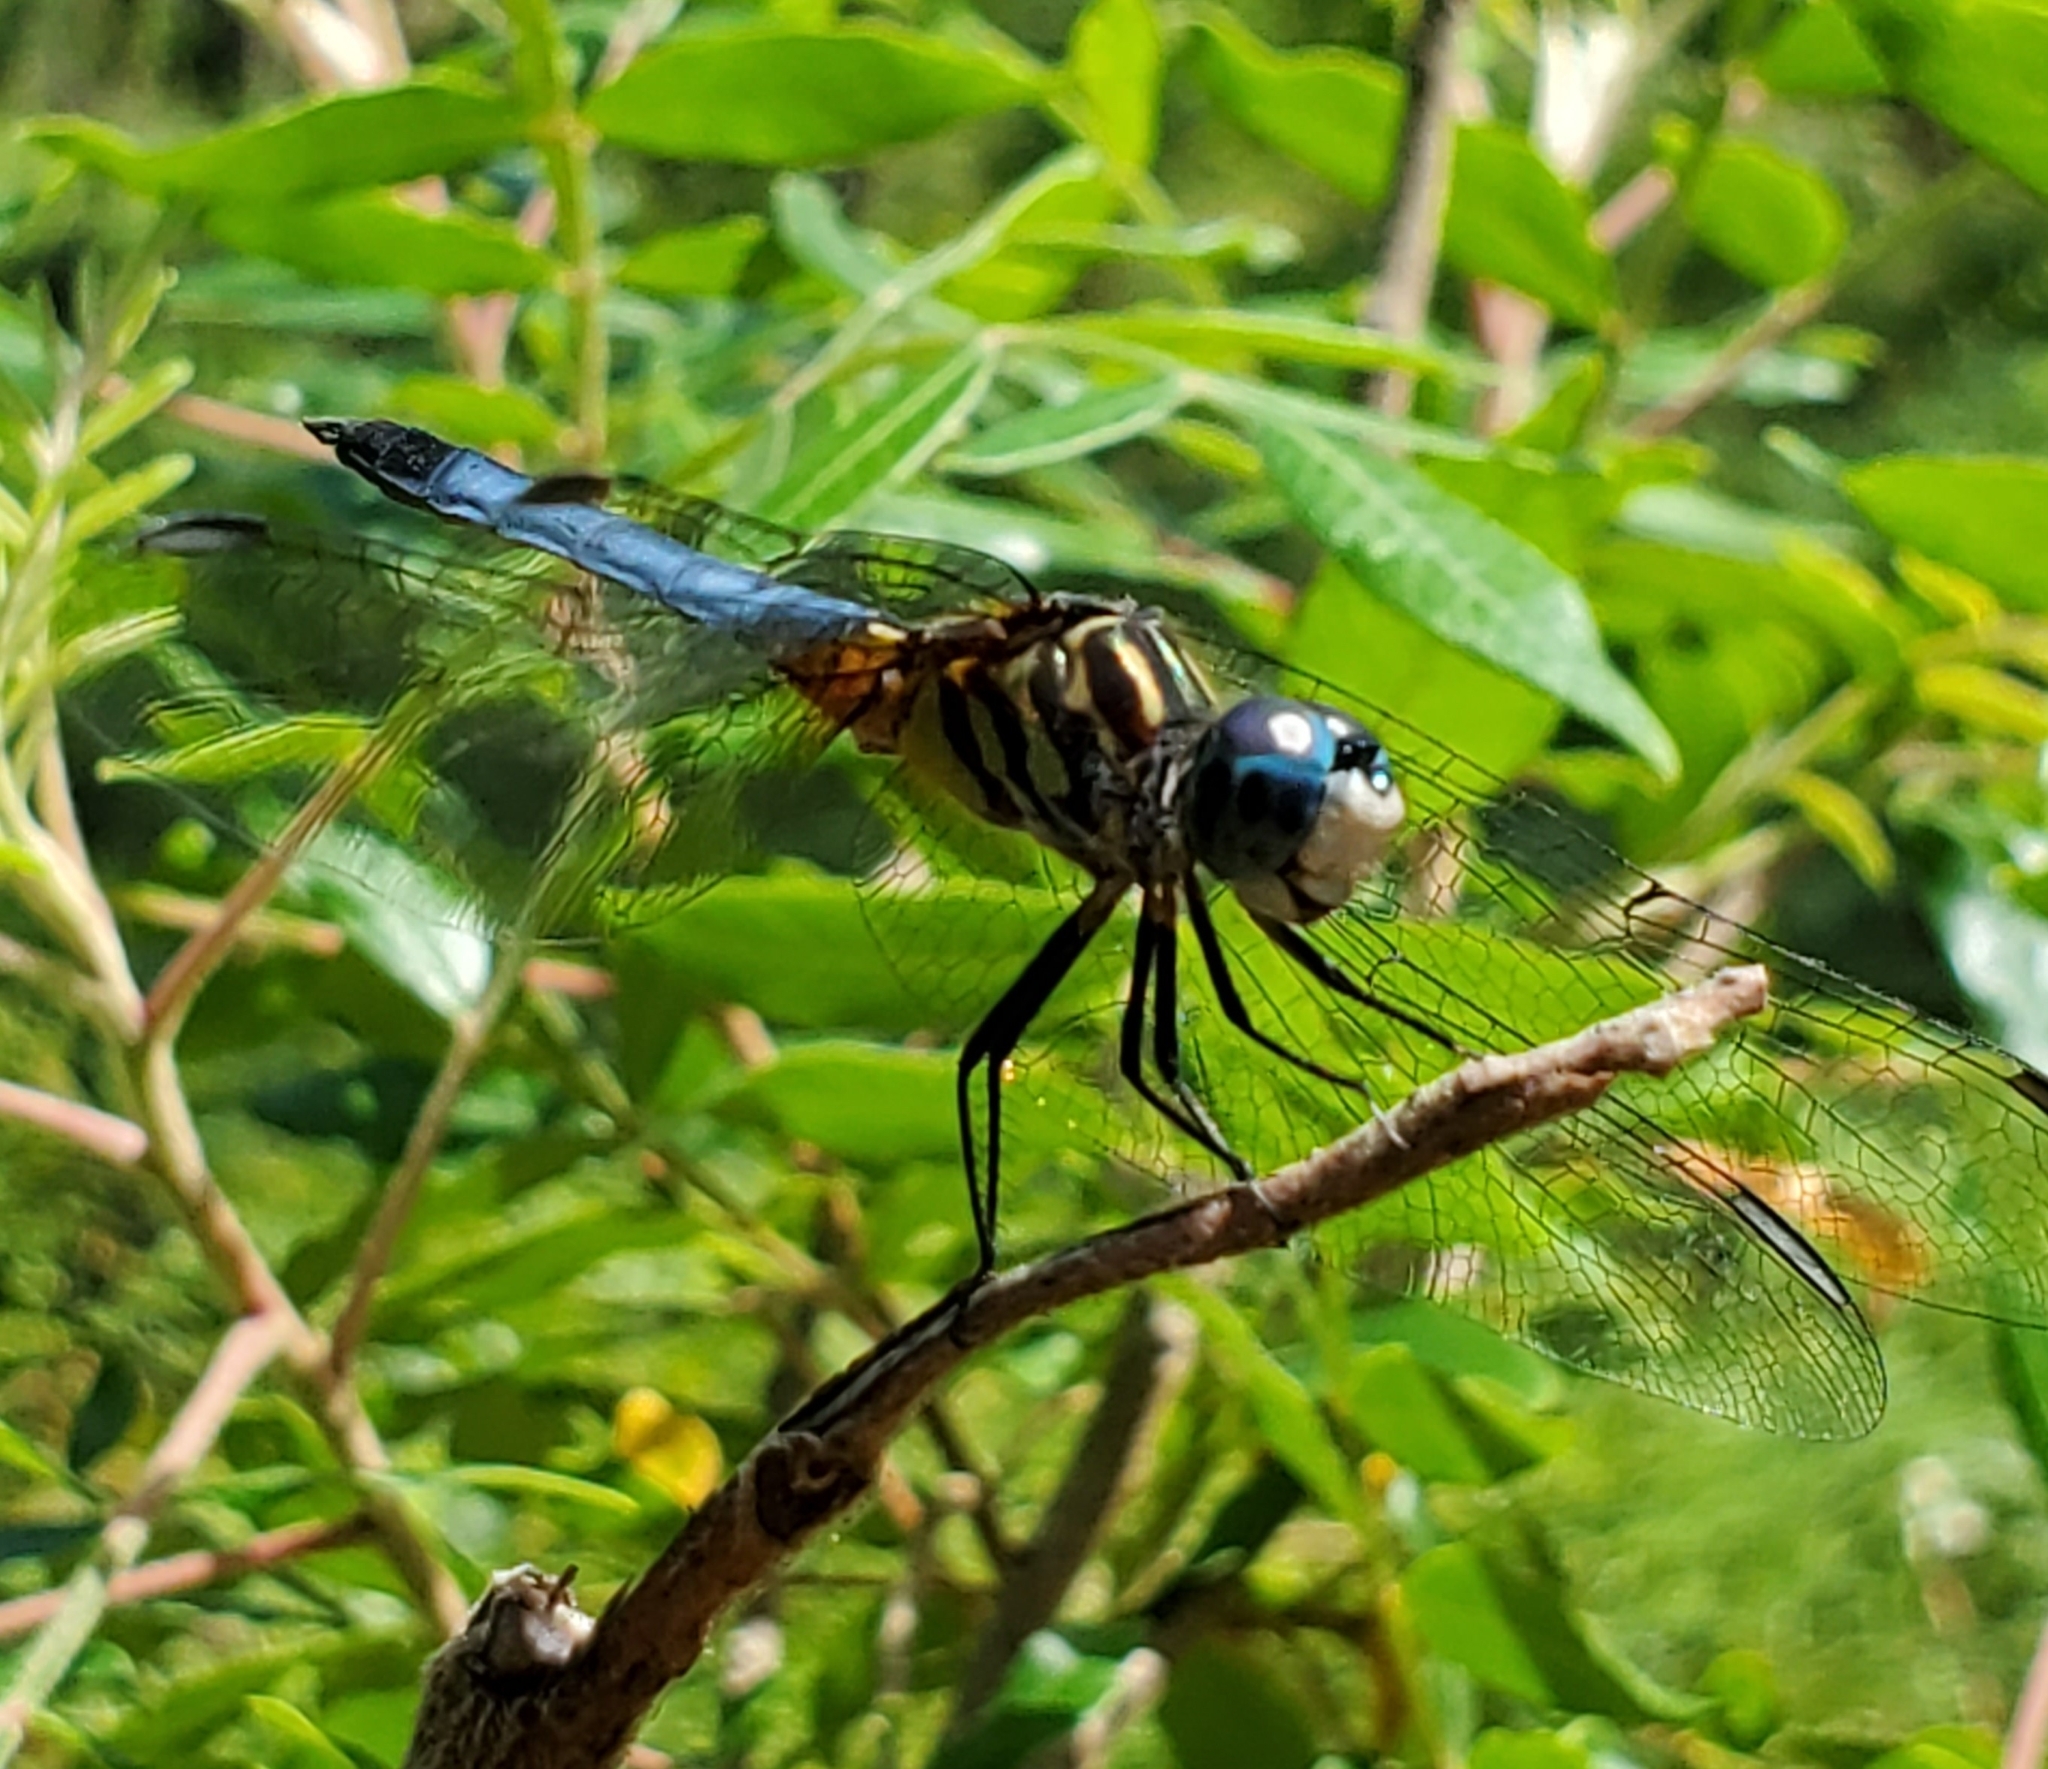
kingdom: Animalia
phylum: Arthropoda
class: Insecta
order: Odonata
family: Libellulidae
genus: Pachydiplax
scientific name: Pachydiplax longipennis
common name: Blue dasher
